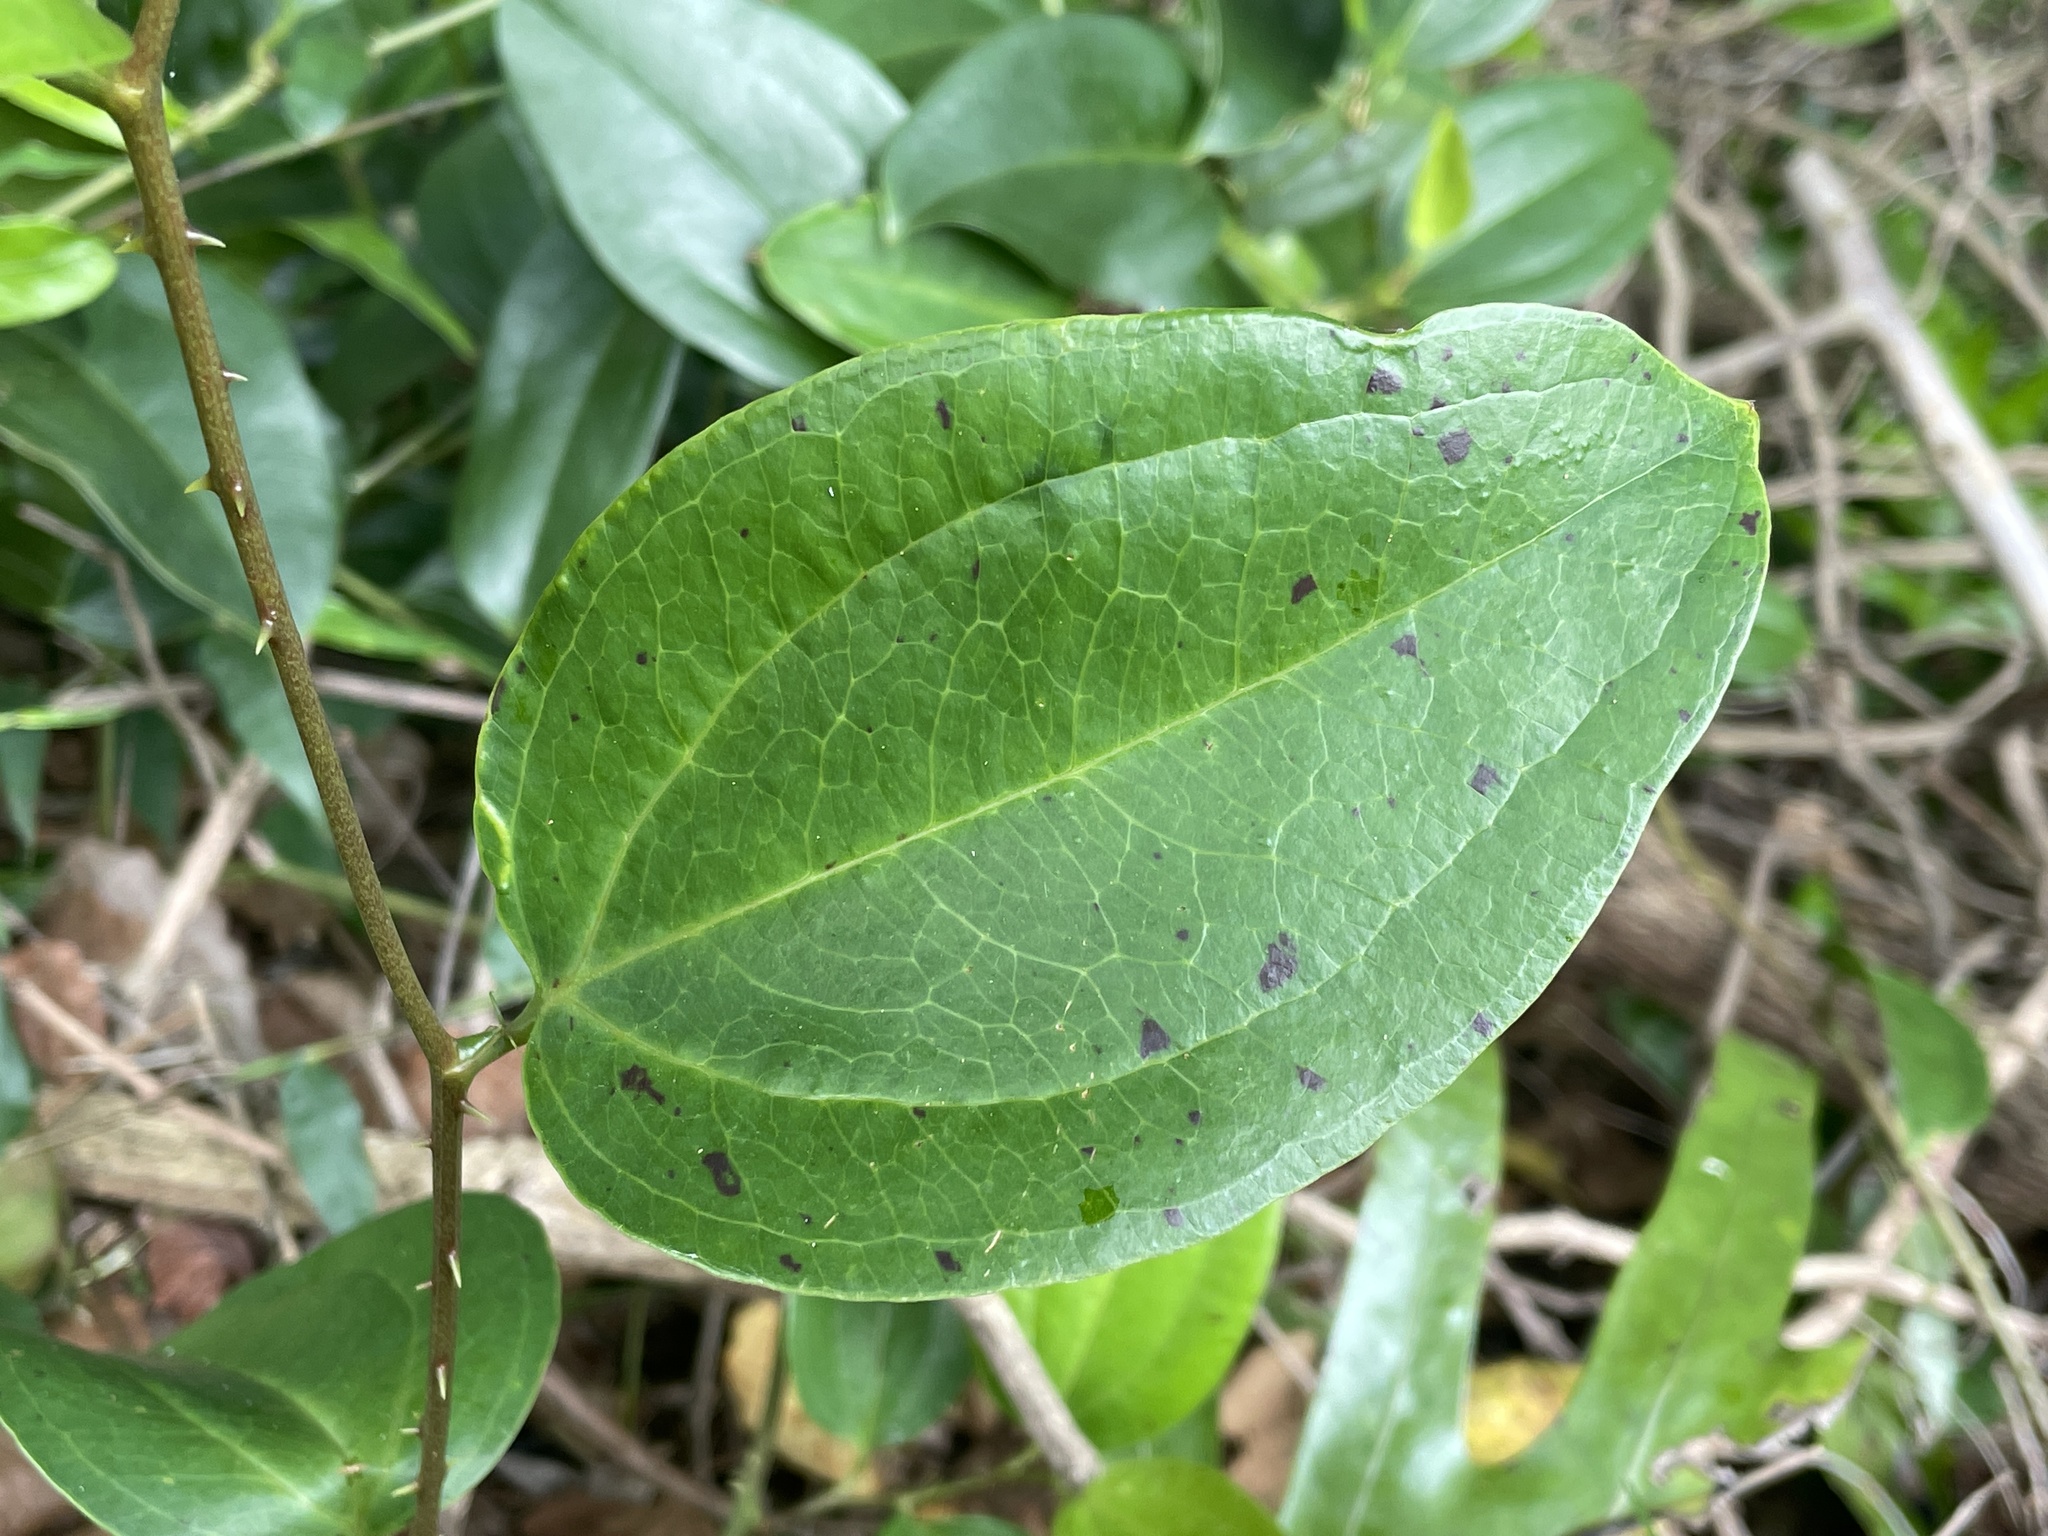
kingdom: Plantae
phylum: Tracheophyta
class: Liliopsida
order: Liliales
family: Smilacaceae
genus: Smilax
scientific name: Smilax anceps
